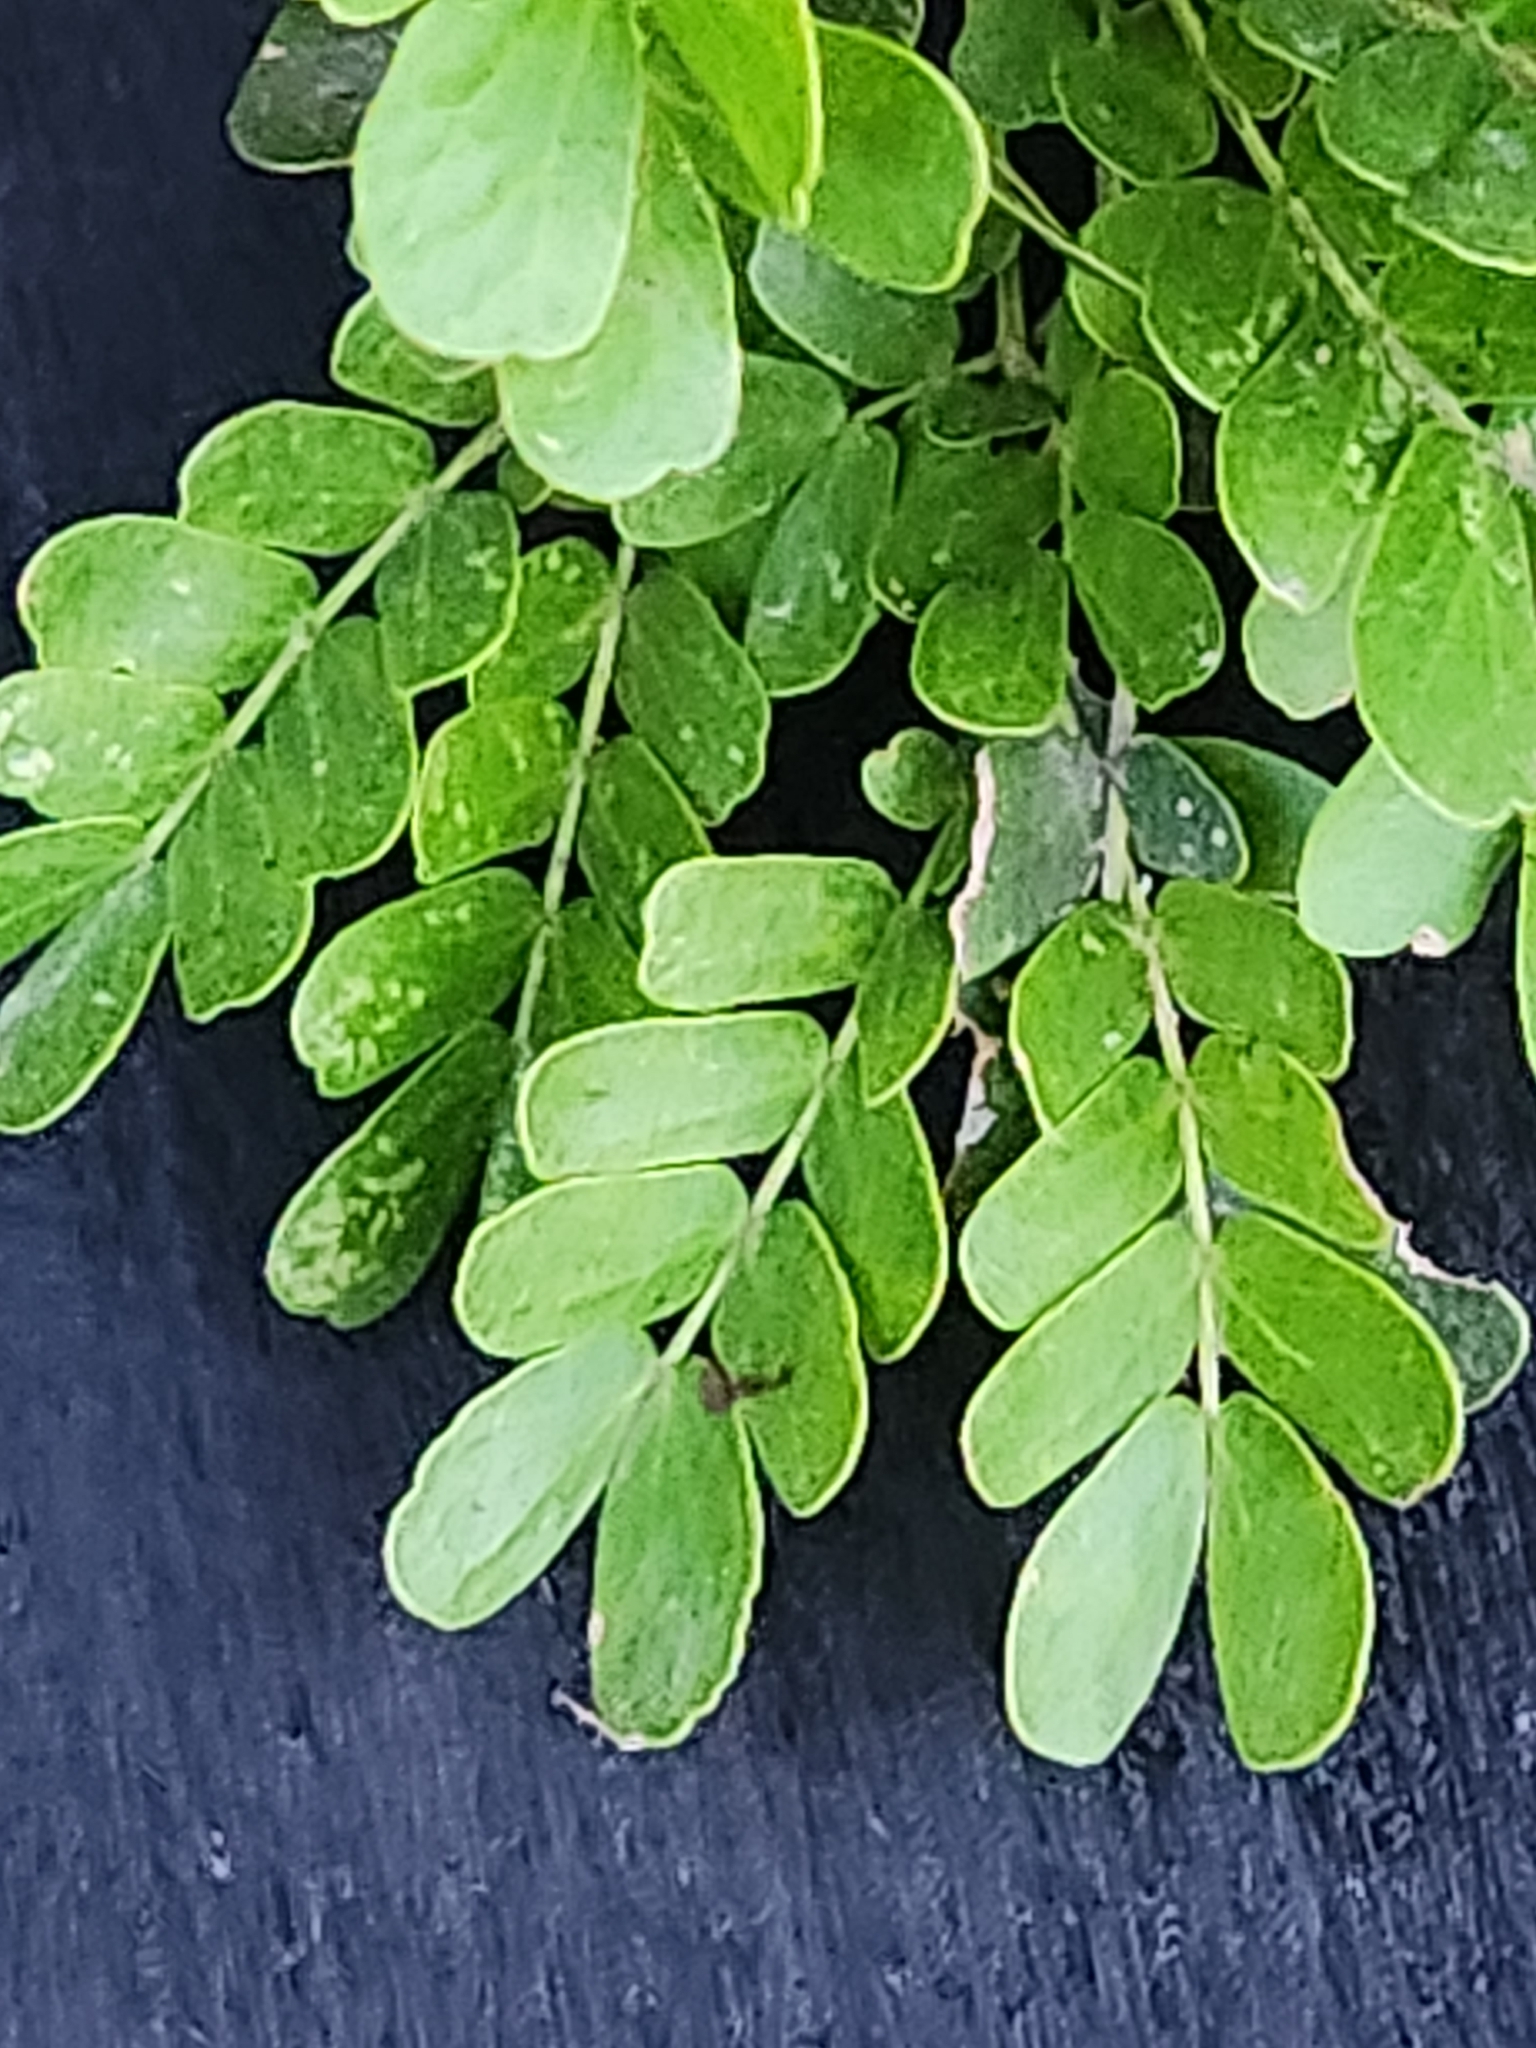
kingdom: Plantae
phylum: Tracheophyta
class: Magnoliopsida
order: Fabales
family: Fabaceae
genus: Ebenopsis
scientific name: Ebenopsis ebano
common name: Ebony blackbead
